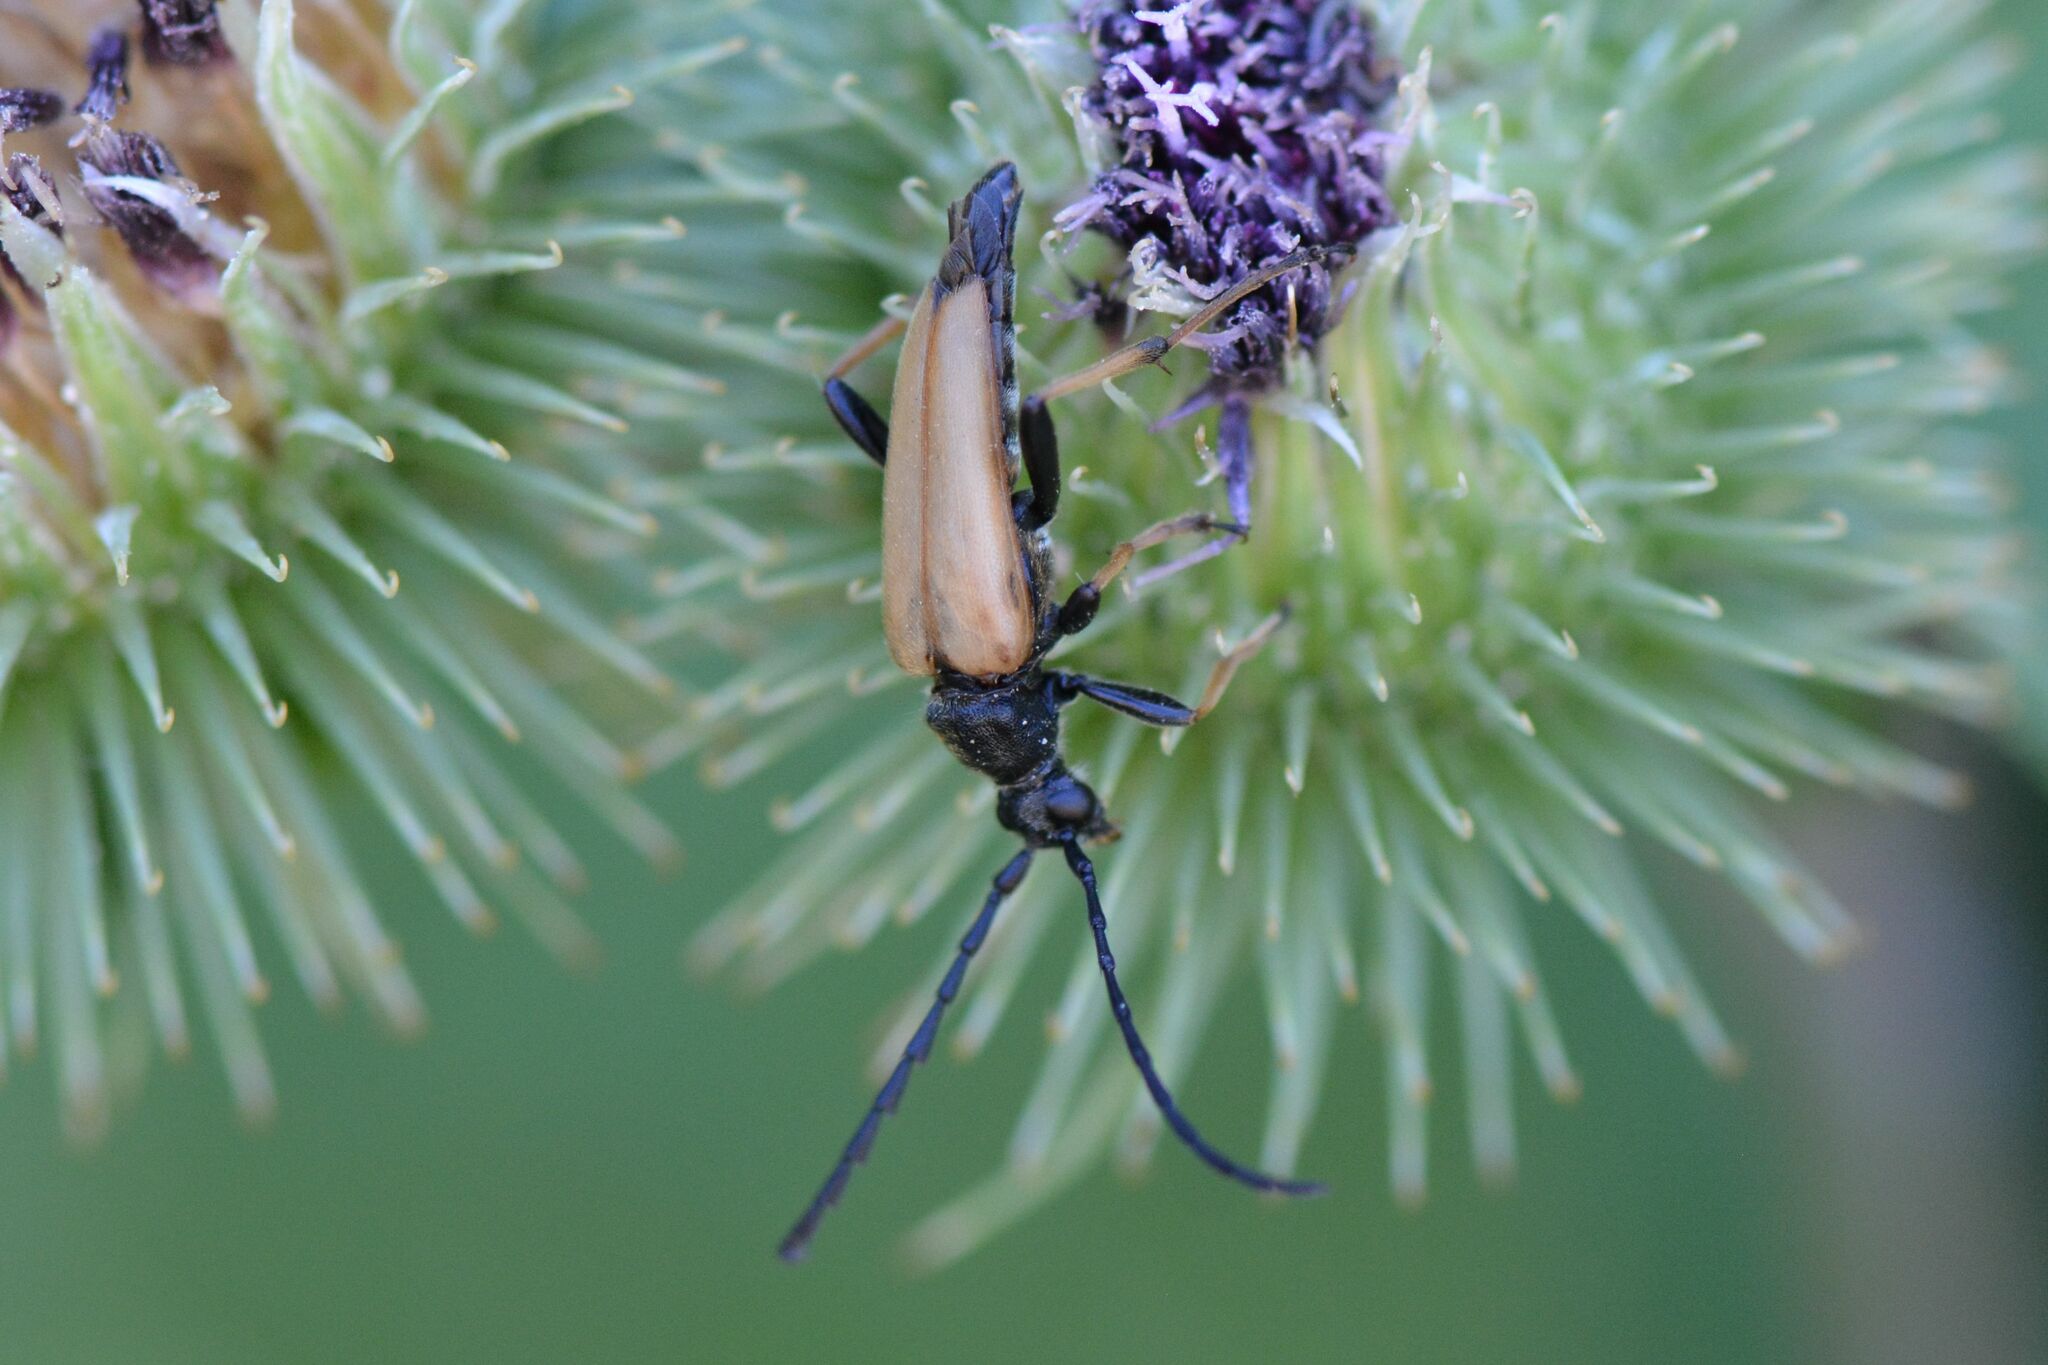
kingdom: Animalia
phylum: Arthropoda
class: Insecta
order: Coleoptera
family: Cerambycidae
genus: Stictoleptura
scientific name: Stictoleptura rubra
